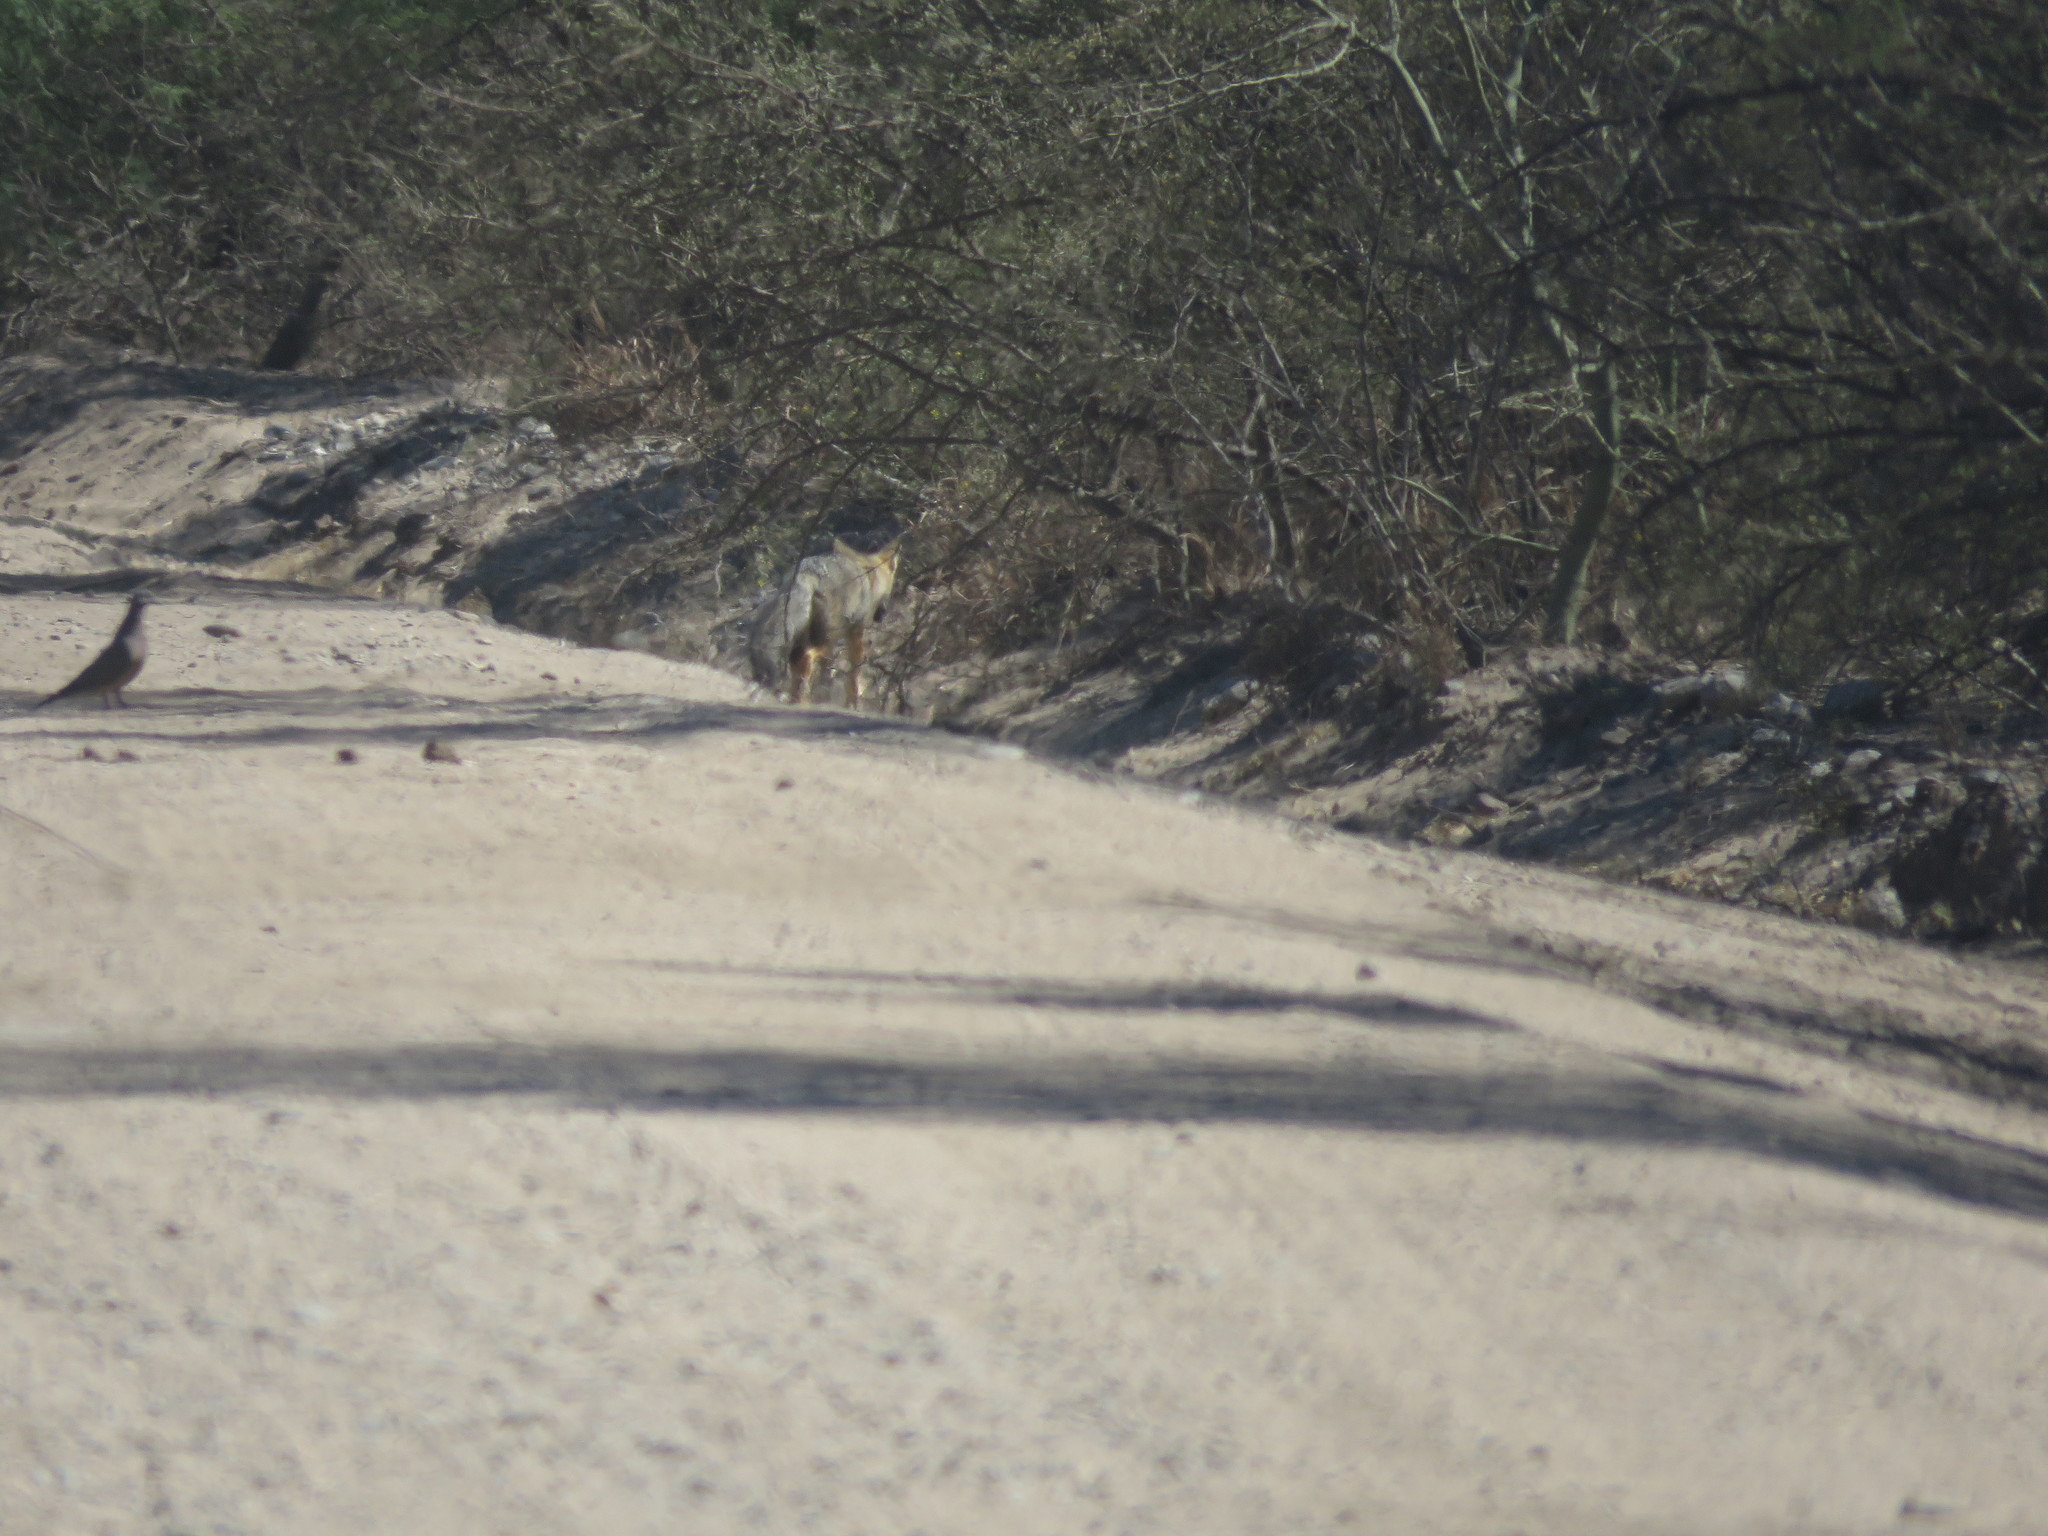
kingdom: Animalia
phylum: Chordata
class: Mammalia
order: Carnivora
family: Canidae
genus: Lycalopex
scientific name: Lycalopex gymnocercus
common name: Pampas fox
